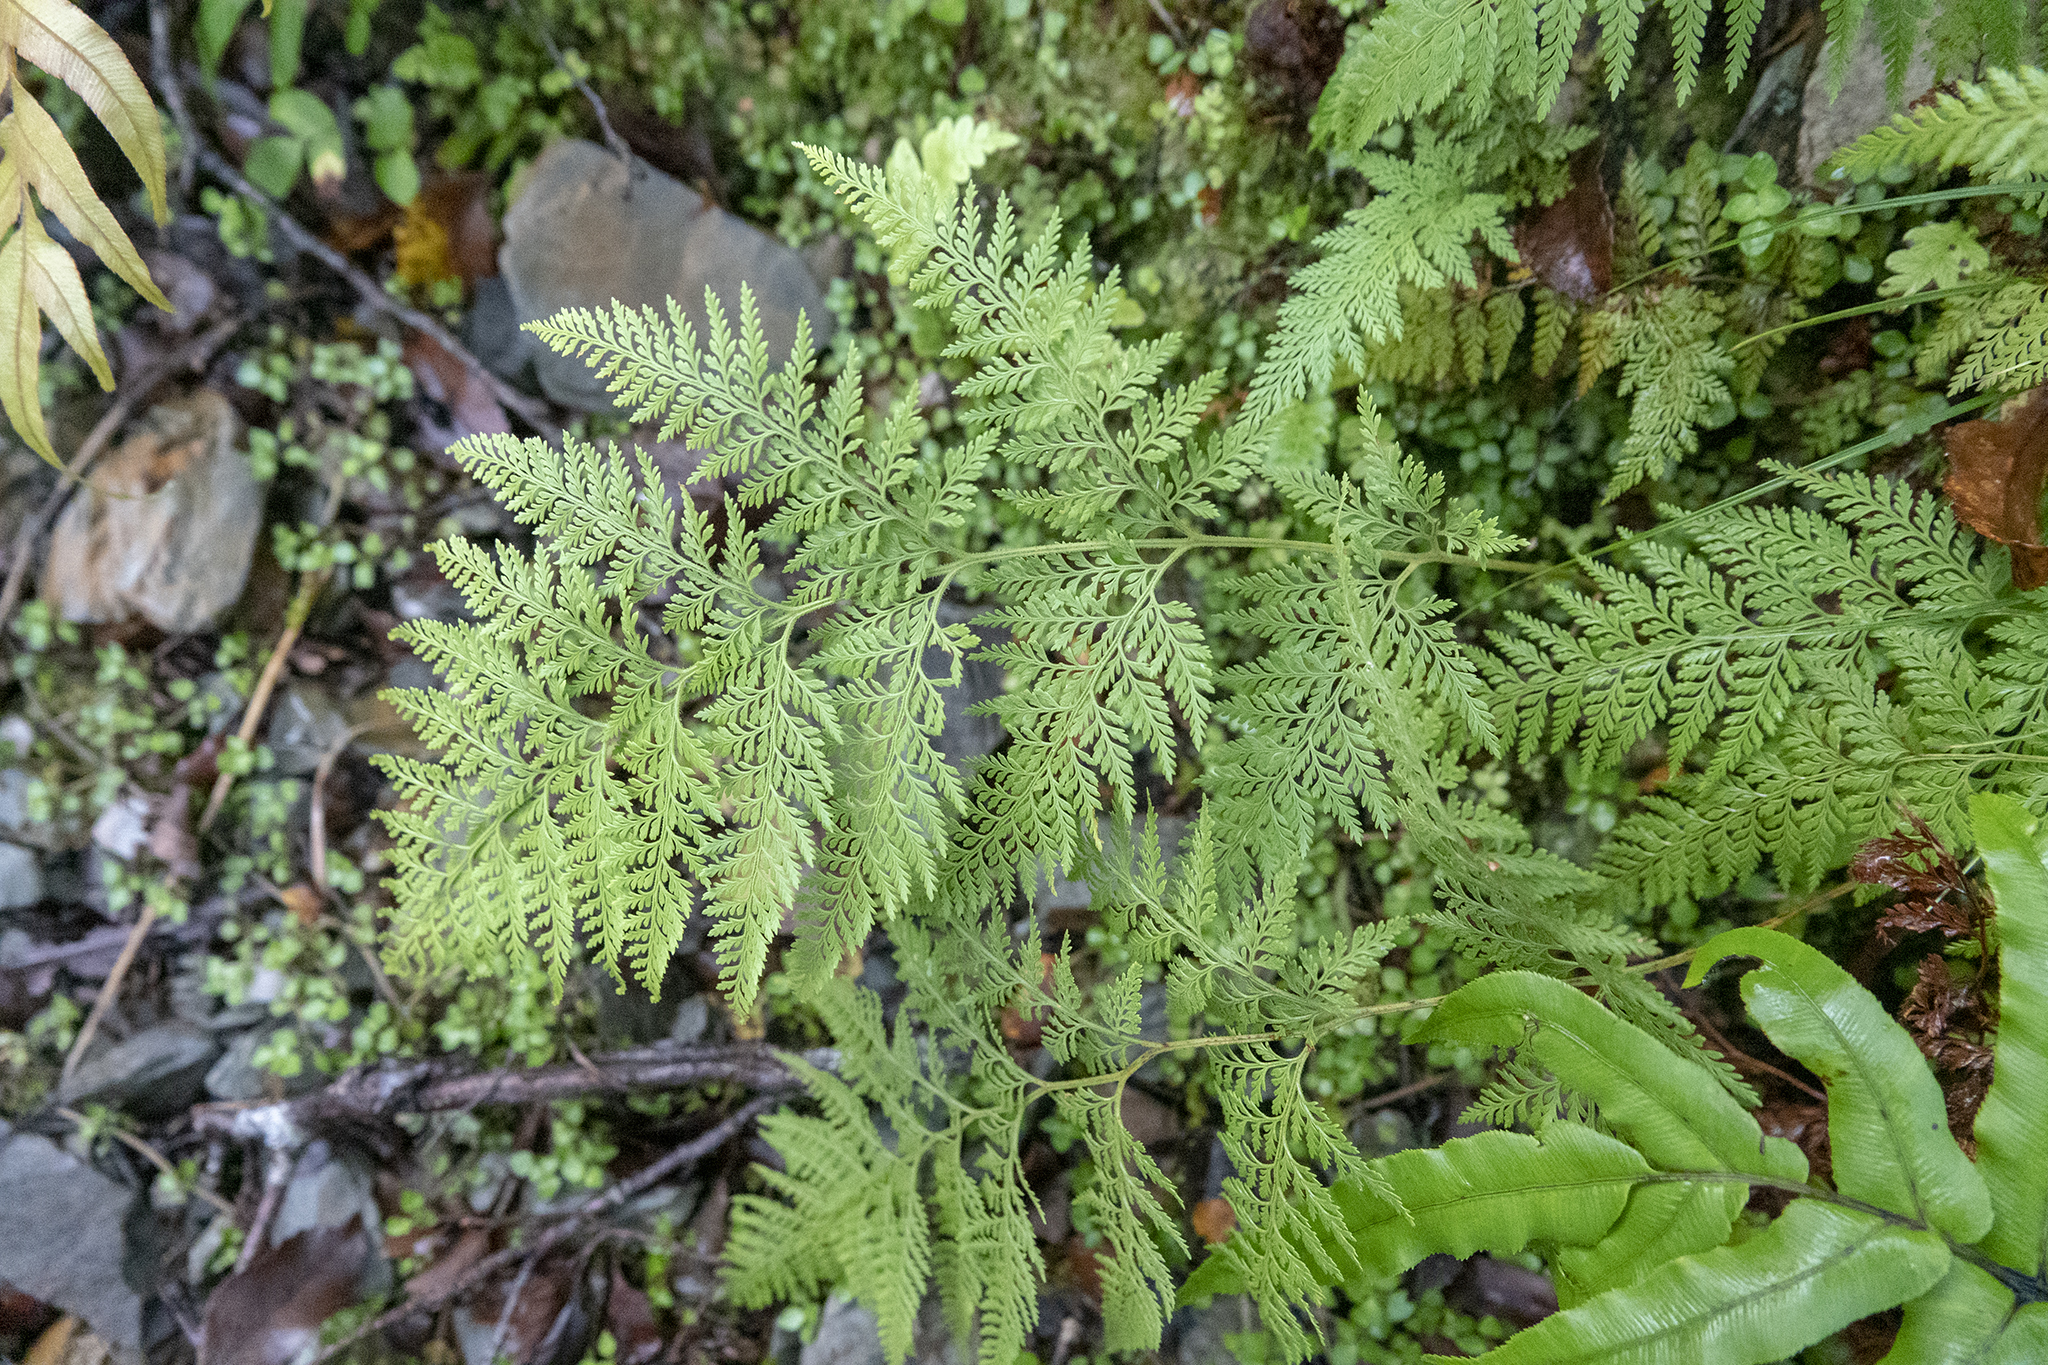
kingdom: Plantae
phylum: Tracheophyta
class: Polypodiopsida
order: Polypodiales
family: Dennstaedtiaceae
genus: Paesia
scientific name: Paesia scaberula
